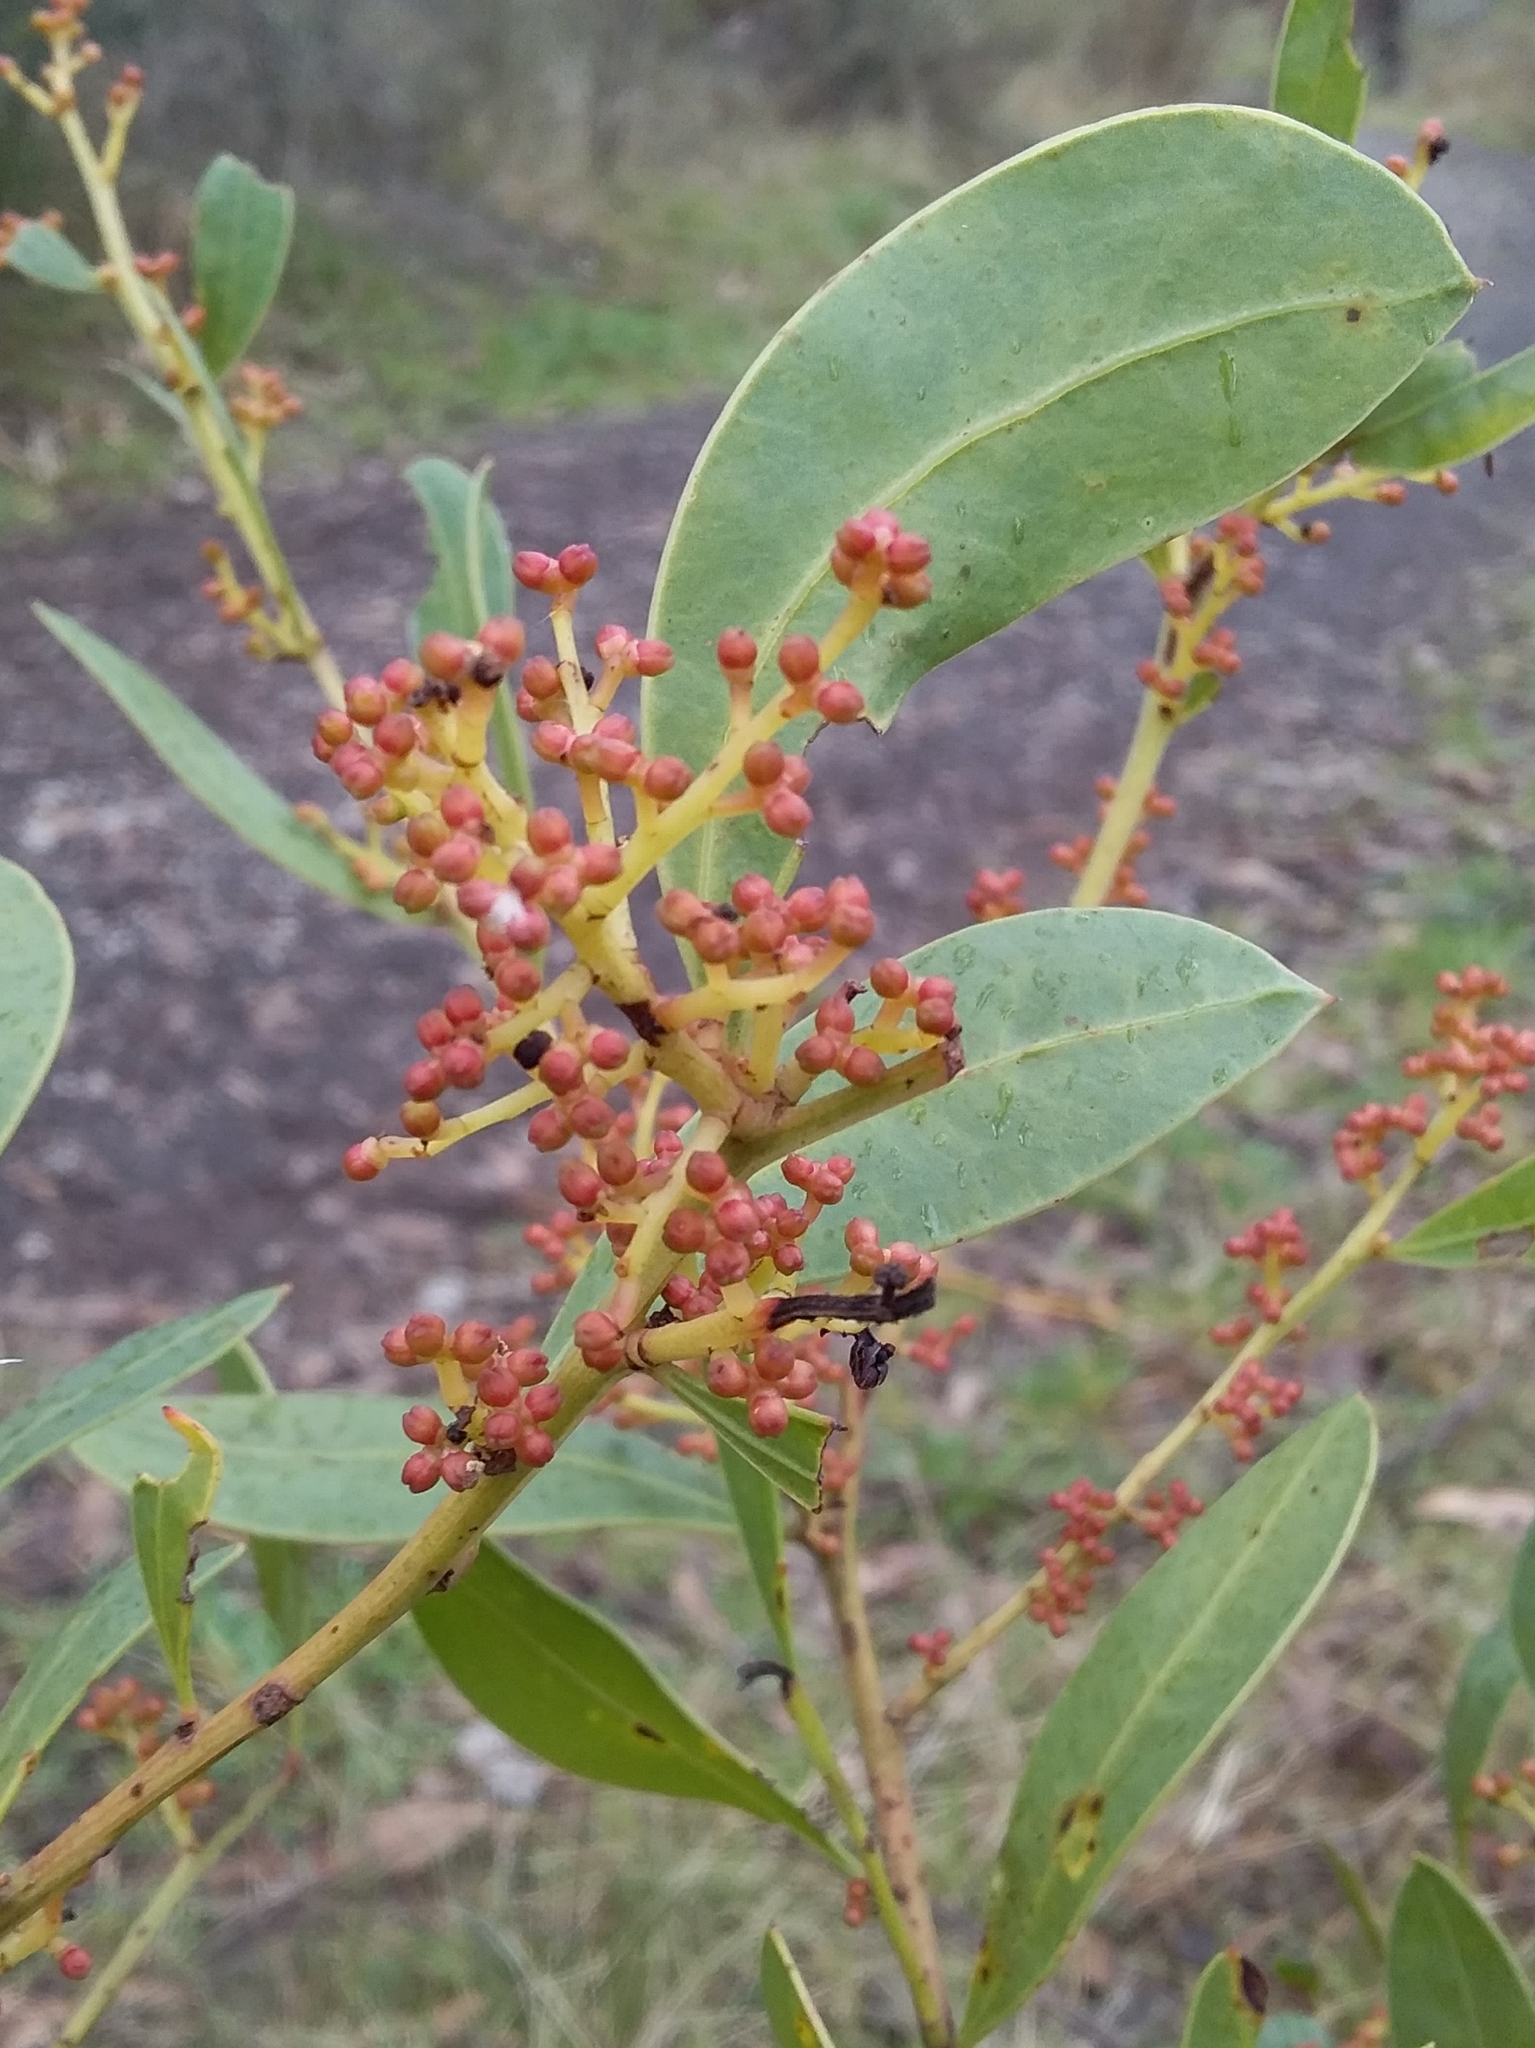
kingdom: Plantae
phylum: Tracheophyta
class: Magnoliopsida
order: Fabales
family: Fabaceae
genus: Acacia
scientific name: Acacia myrtifolia
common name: Myrtle wattle
